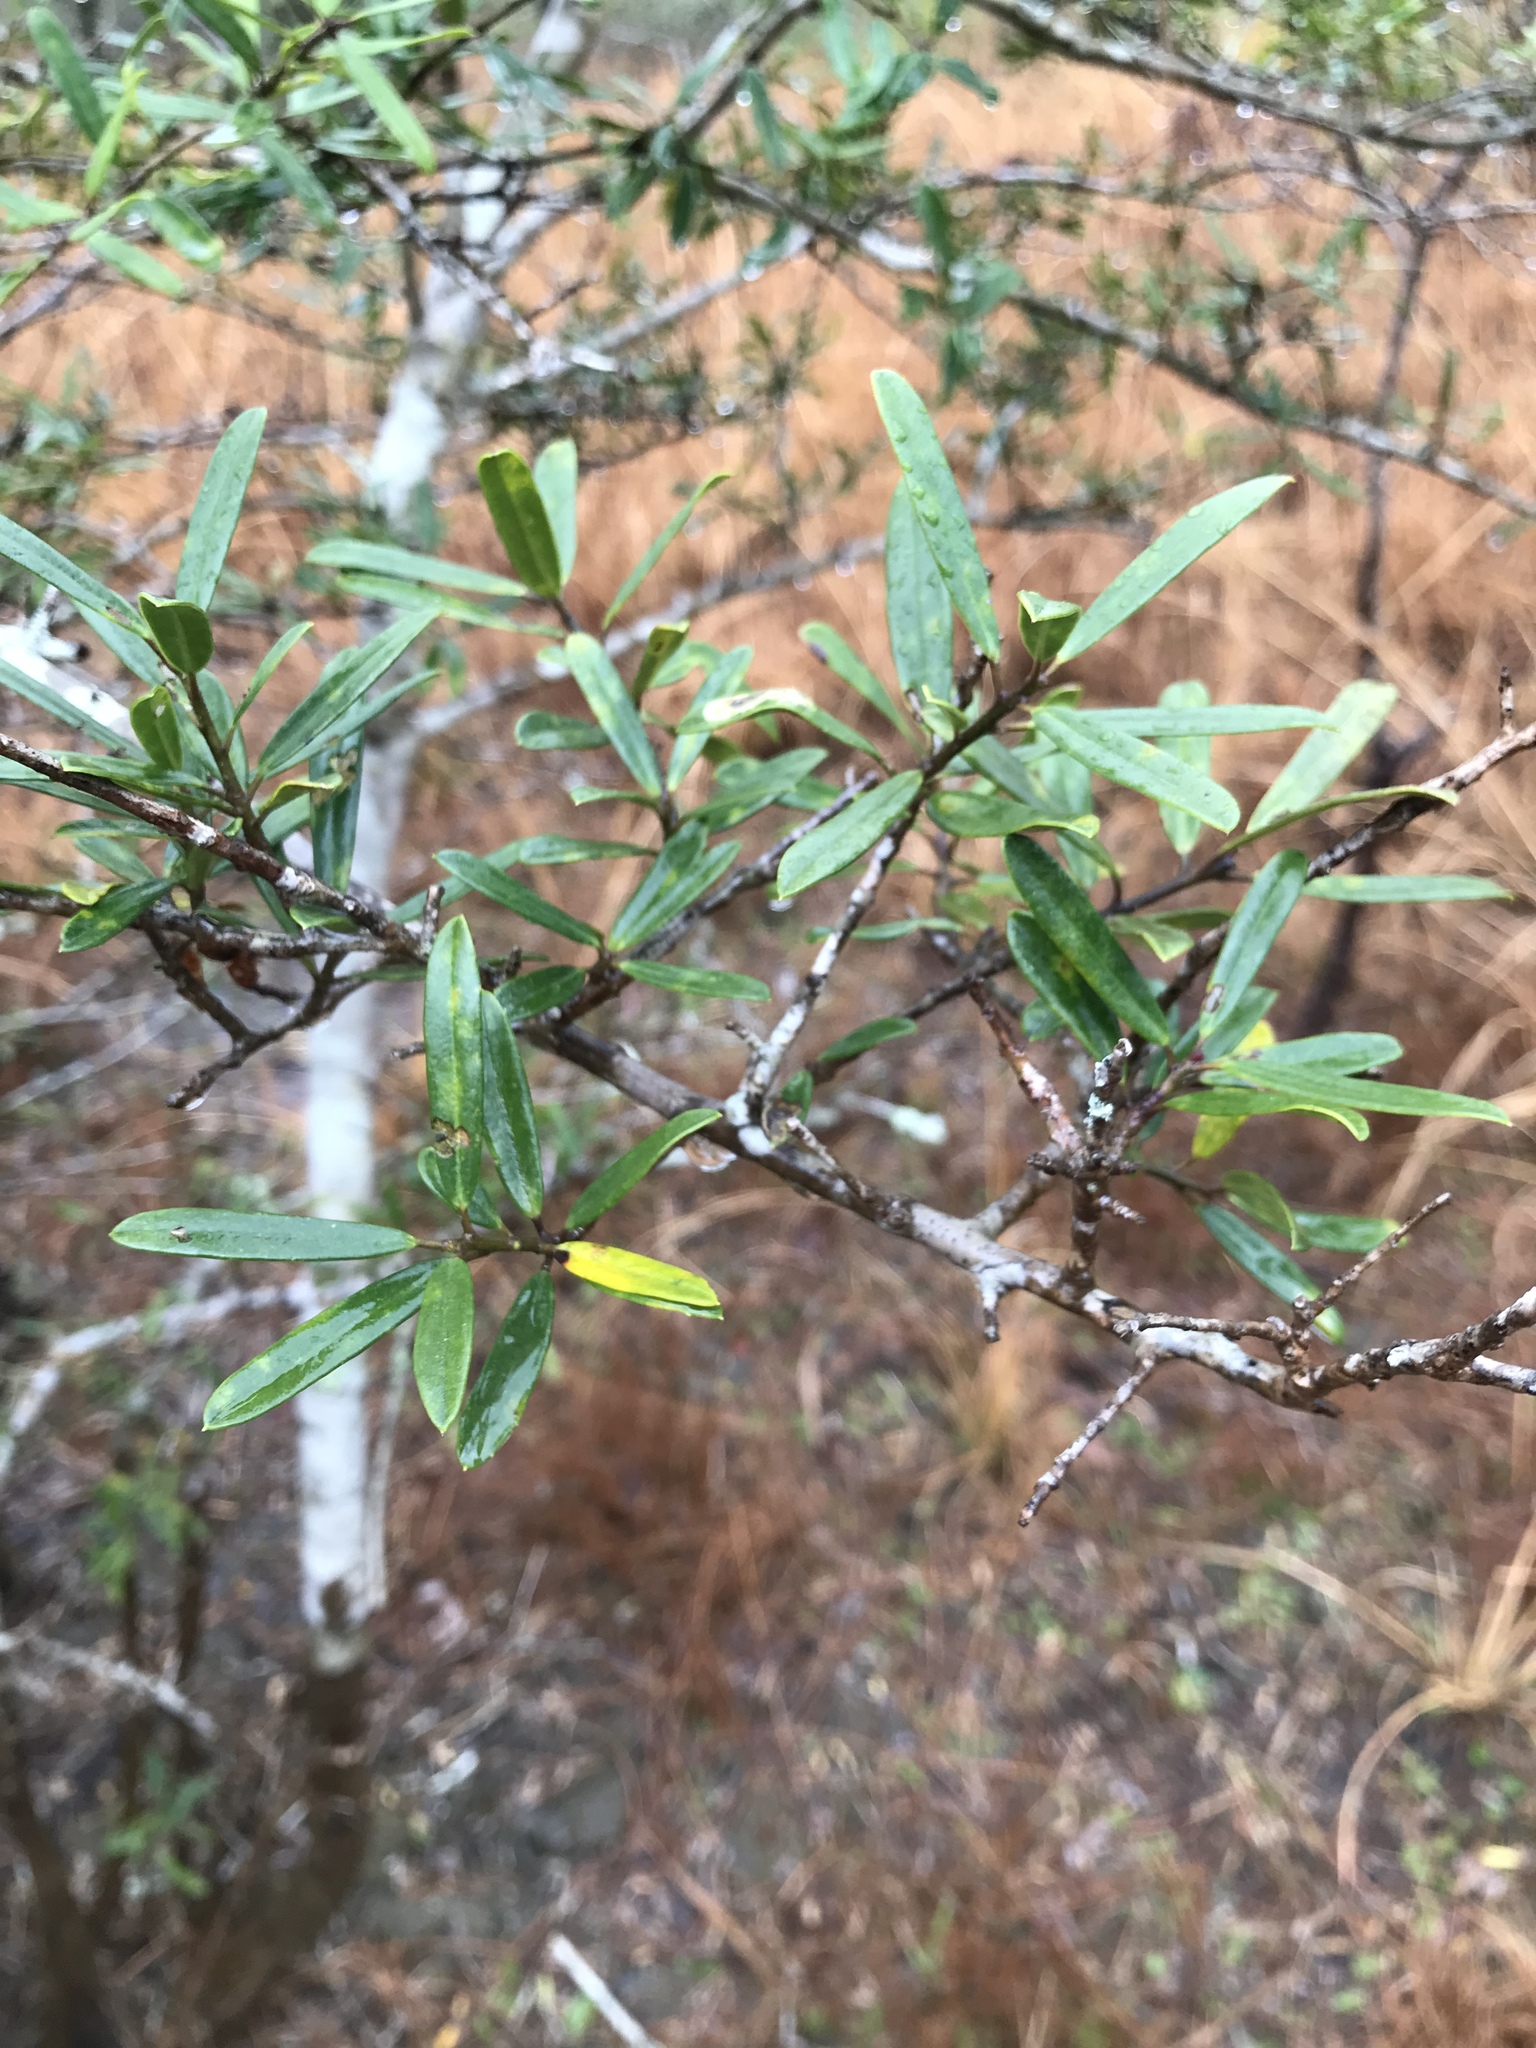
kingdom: Plantae
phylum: Tracheophyta
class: Magnoliopsida
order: Aquifoliales
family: Aquifoliaceae
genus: Ilex
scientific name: Ilex myrtifolia
